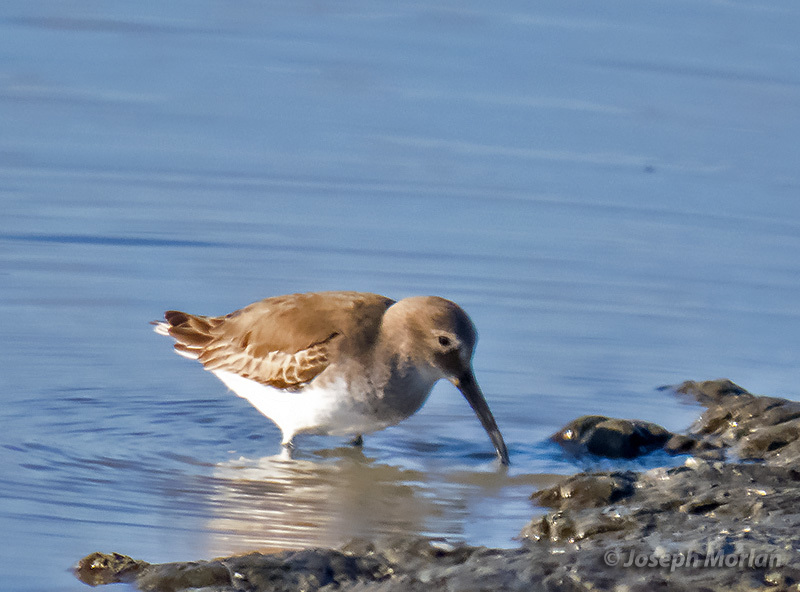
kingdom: Animalia
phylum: Chordata
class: Aves
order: Charadriiformes
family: Scolopacidae
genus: Calidris
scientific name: Calidris alpina
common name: Dunlin
